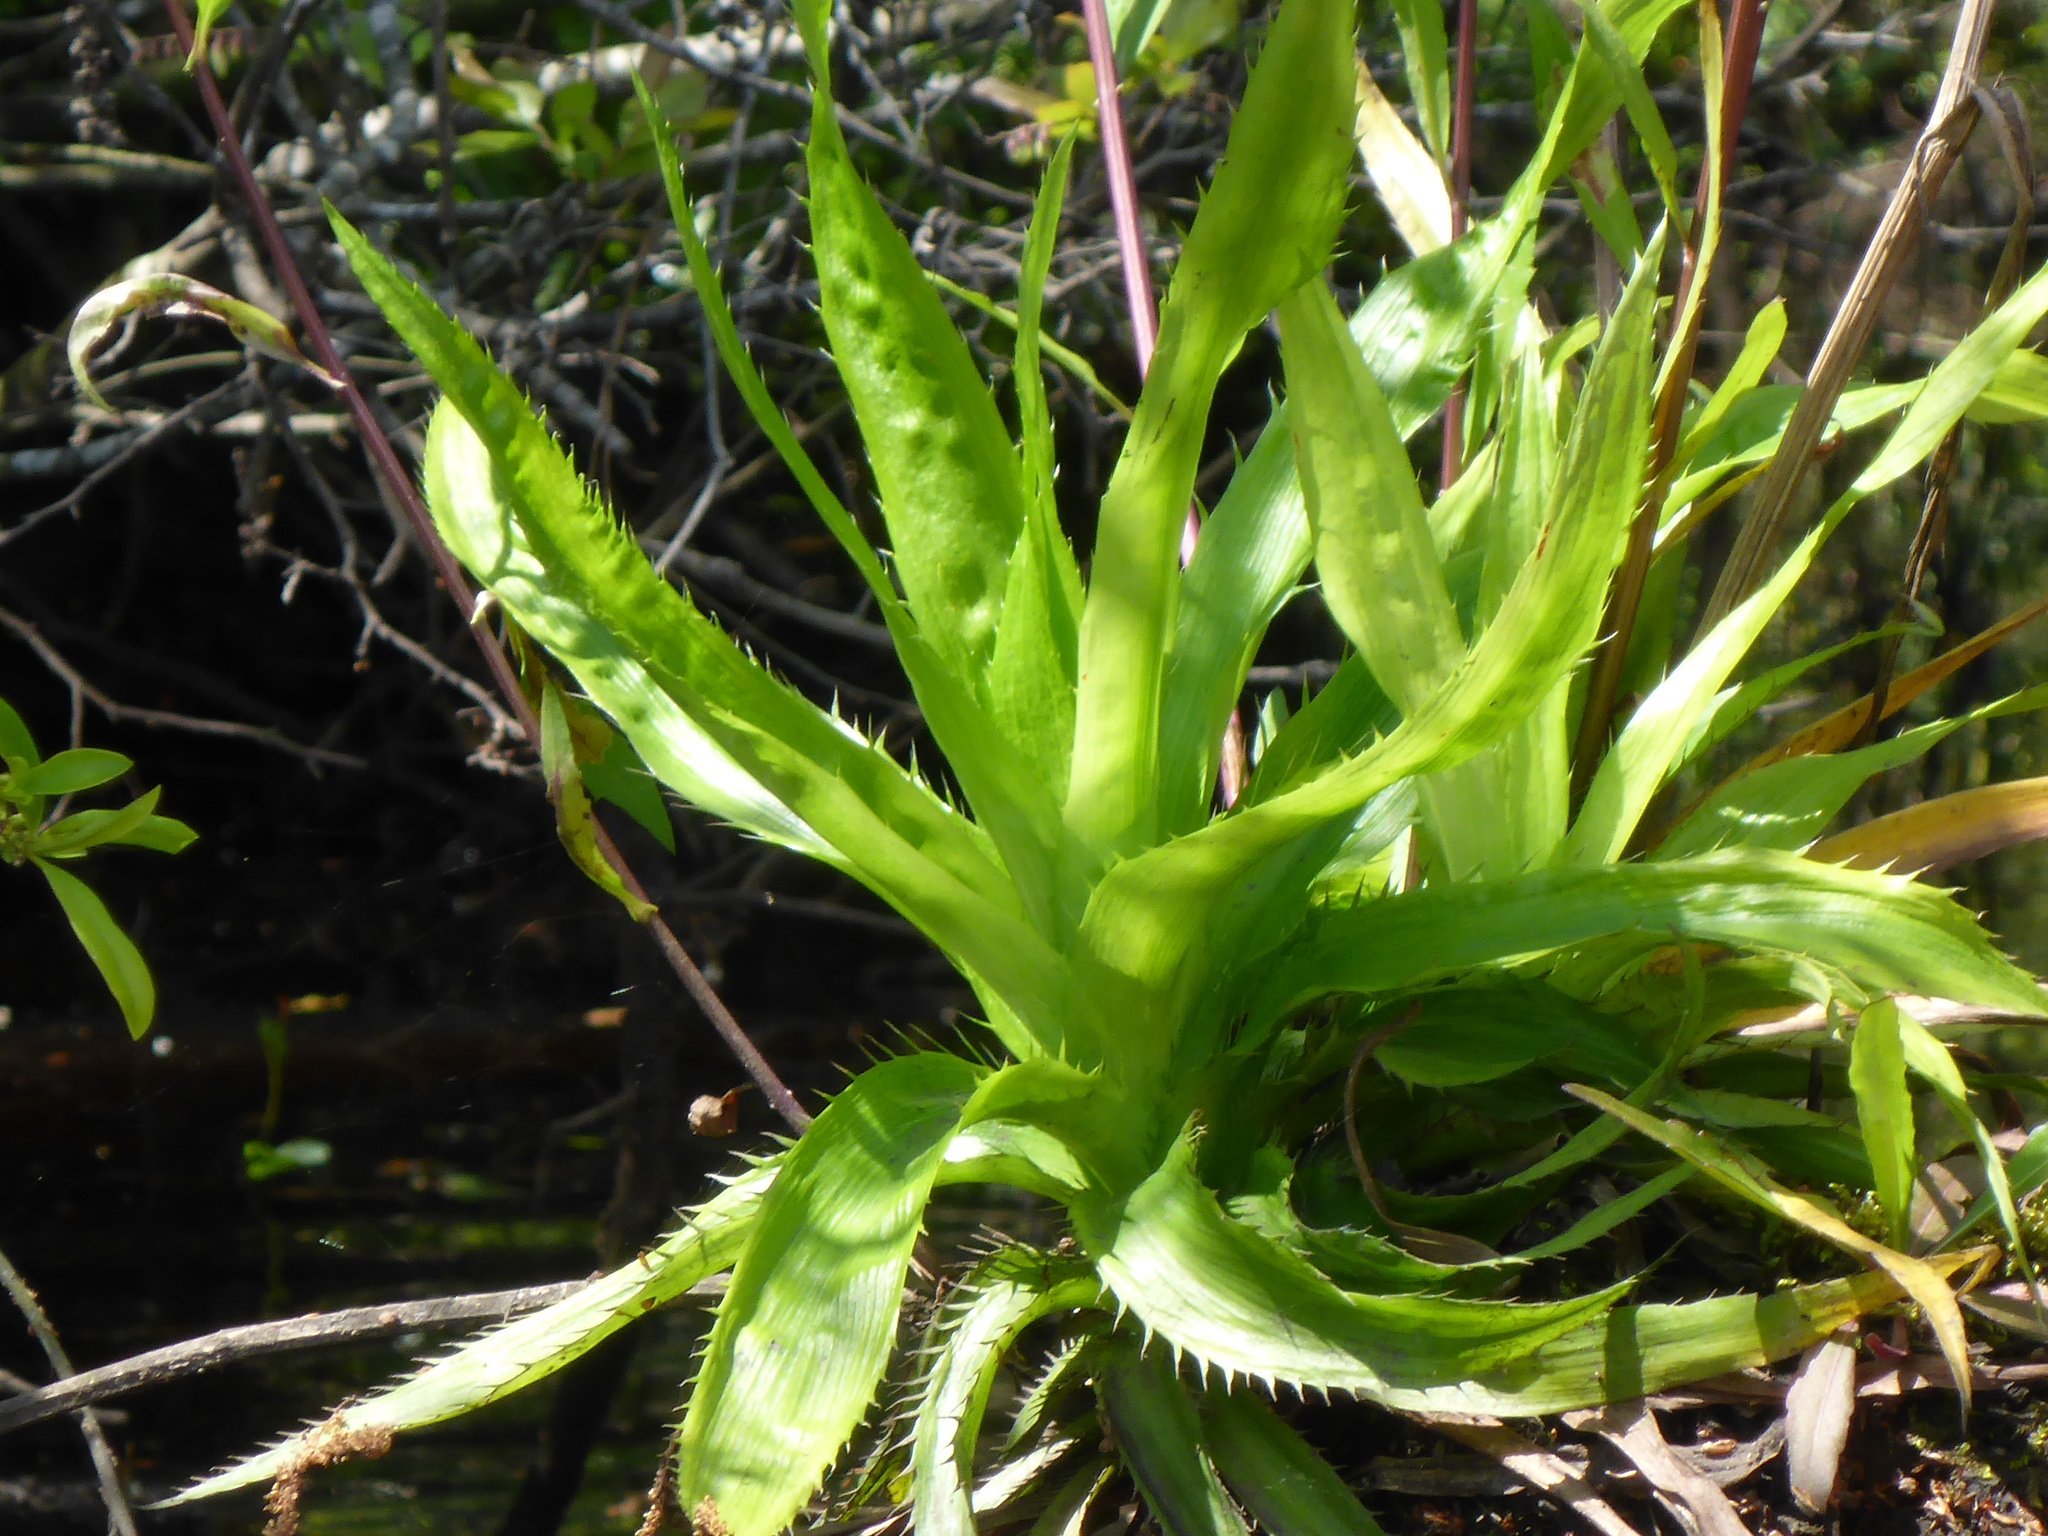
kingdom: Plantae
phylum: Tracheophyta
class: Magnoliopsida
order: Apiales
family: Apiaceae
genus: Eryngium
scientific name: Eryngium yuccifolium
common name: Button eryngo
